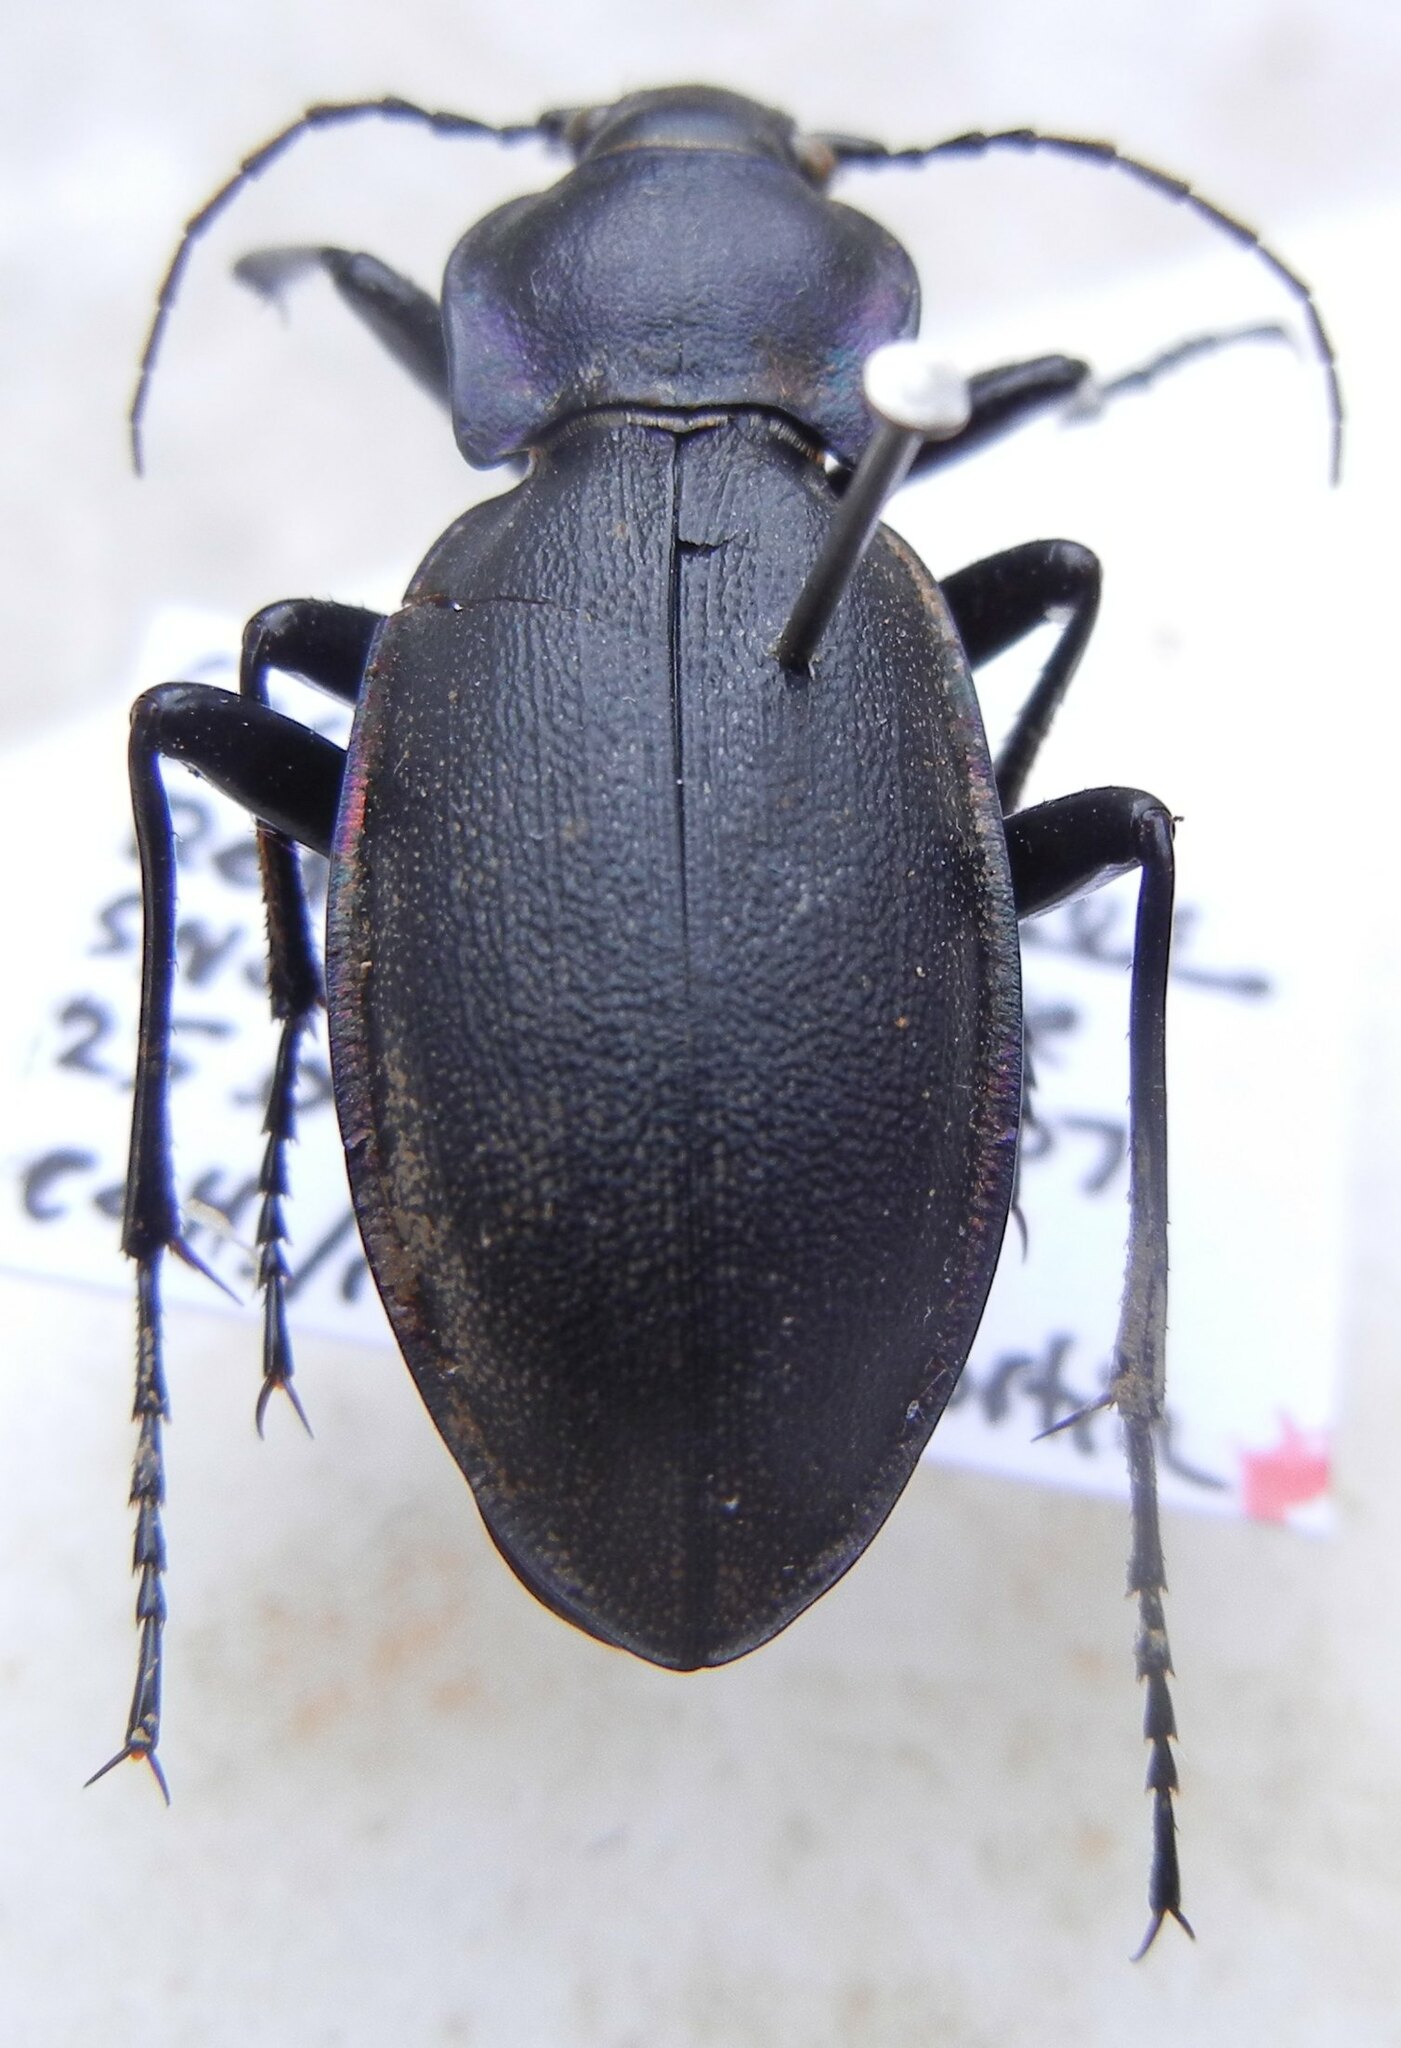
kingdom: Animalia
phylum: Arthropoda
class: Insecta
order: Coleoptera
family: Carabidae
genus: Carabus
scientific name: Carabus violaceus
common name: Violet ground beetle
